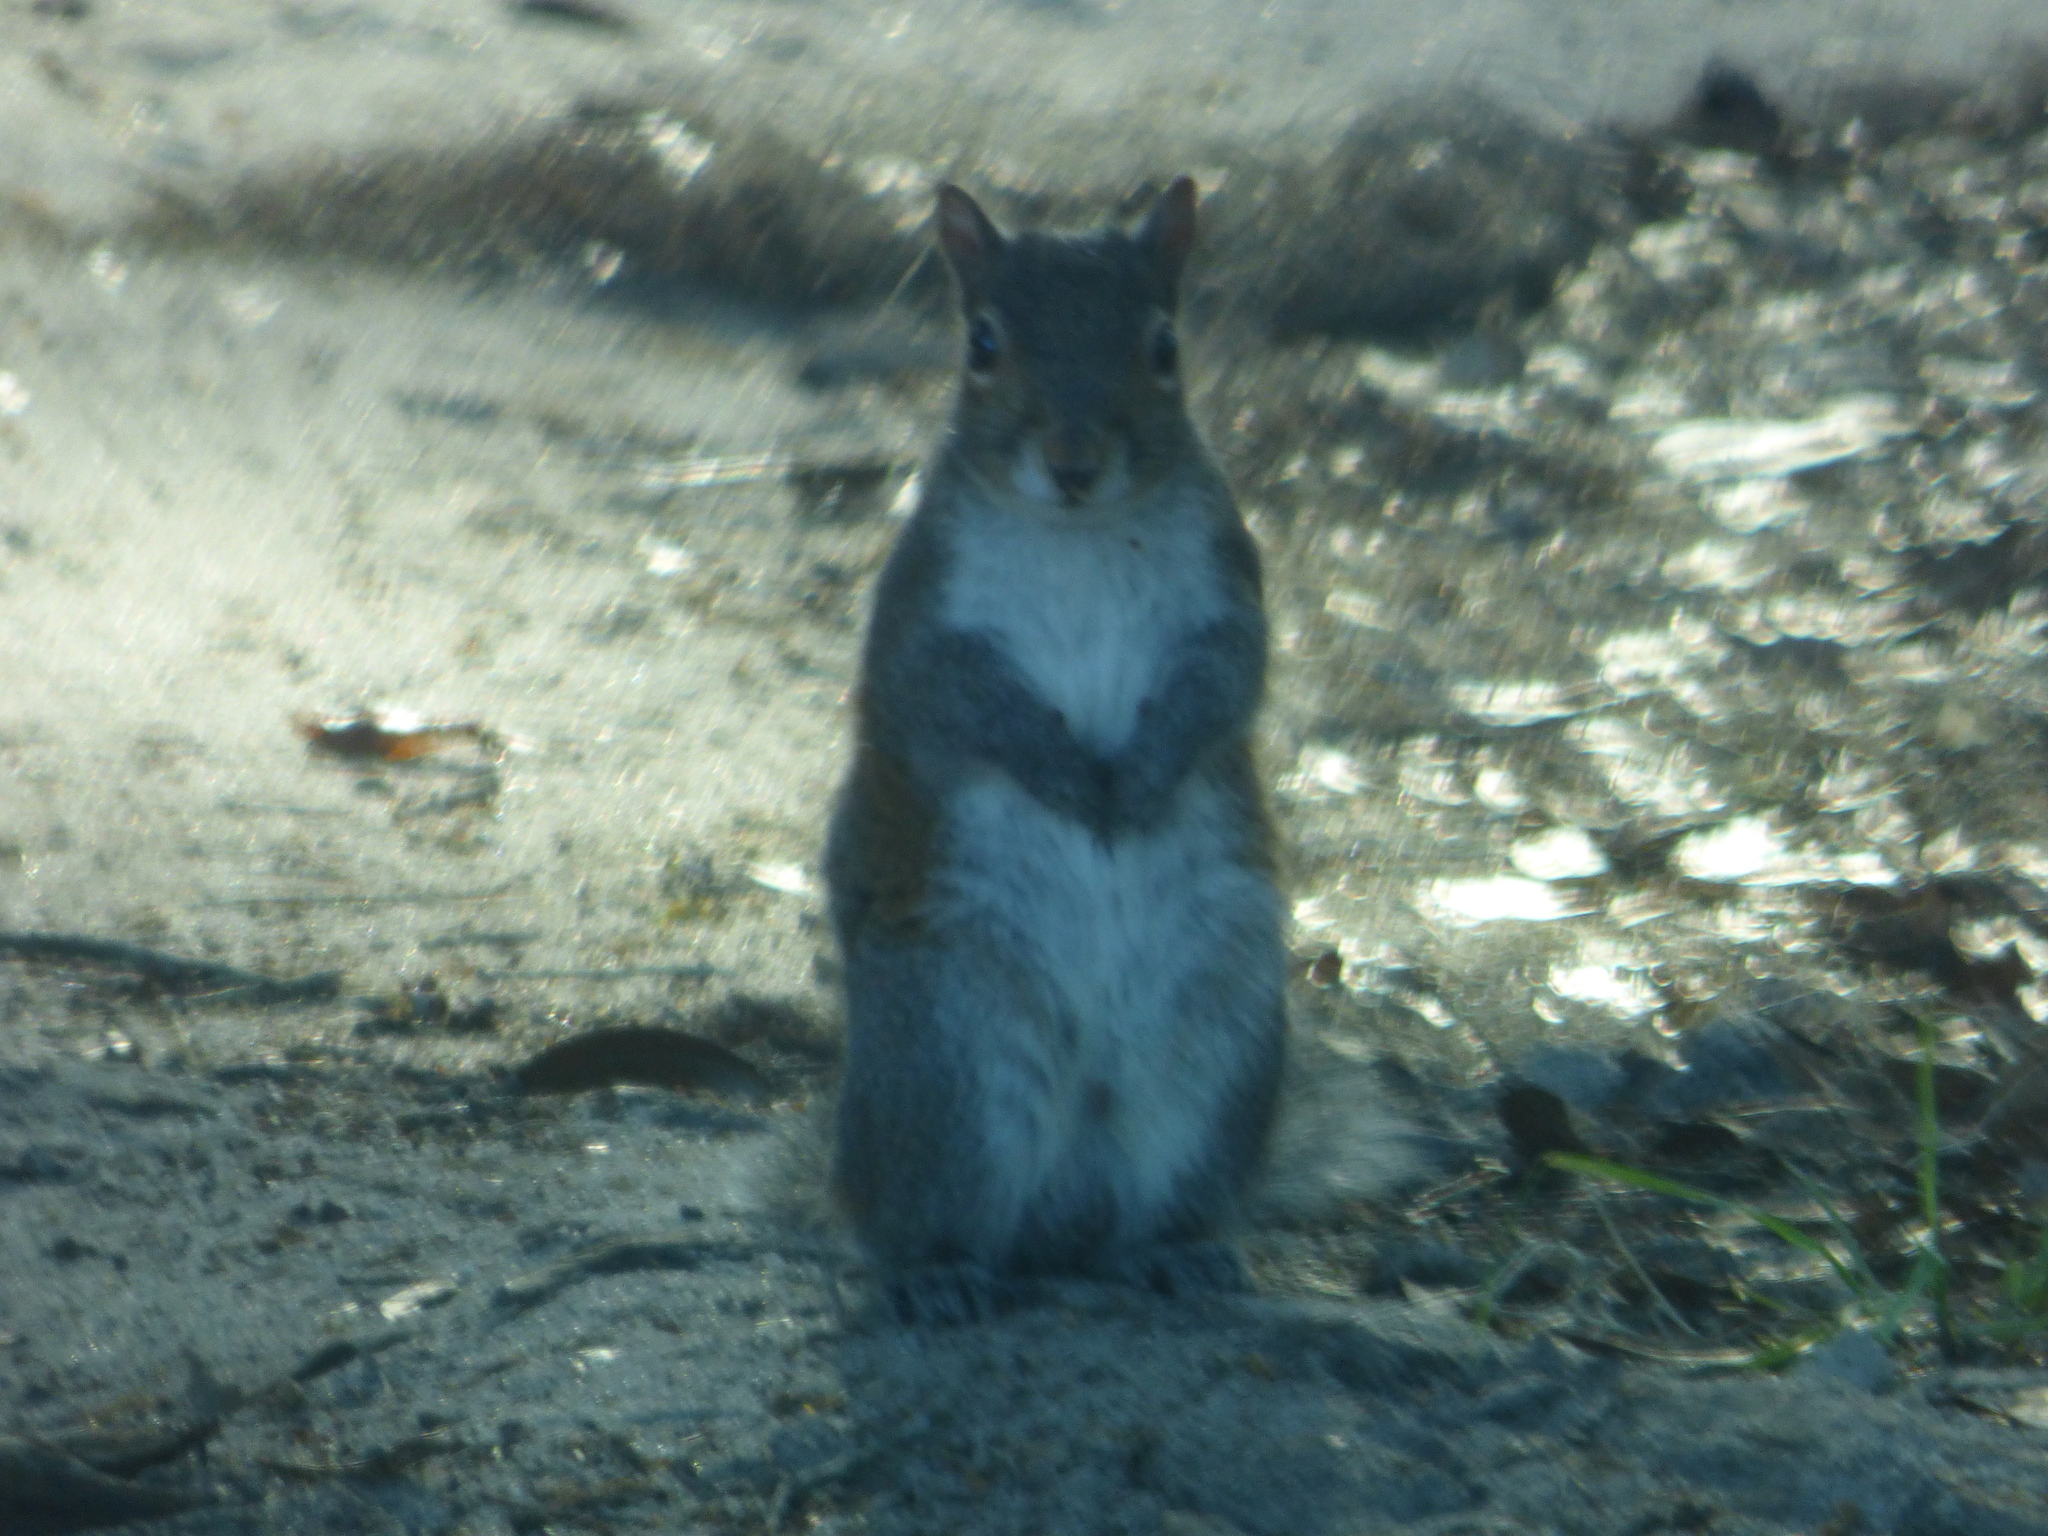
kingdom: Animalia
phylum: Chordata
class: Mammalia
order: Rodentia
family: Sciuridae
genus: Sciurus
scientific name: Sciurus carolinensis
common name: Eastern gray squirrel
